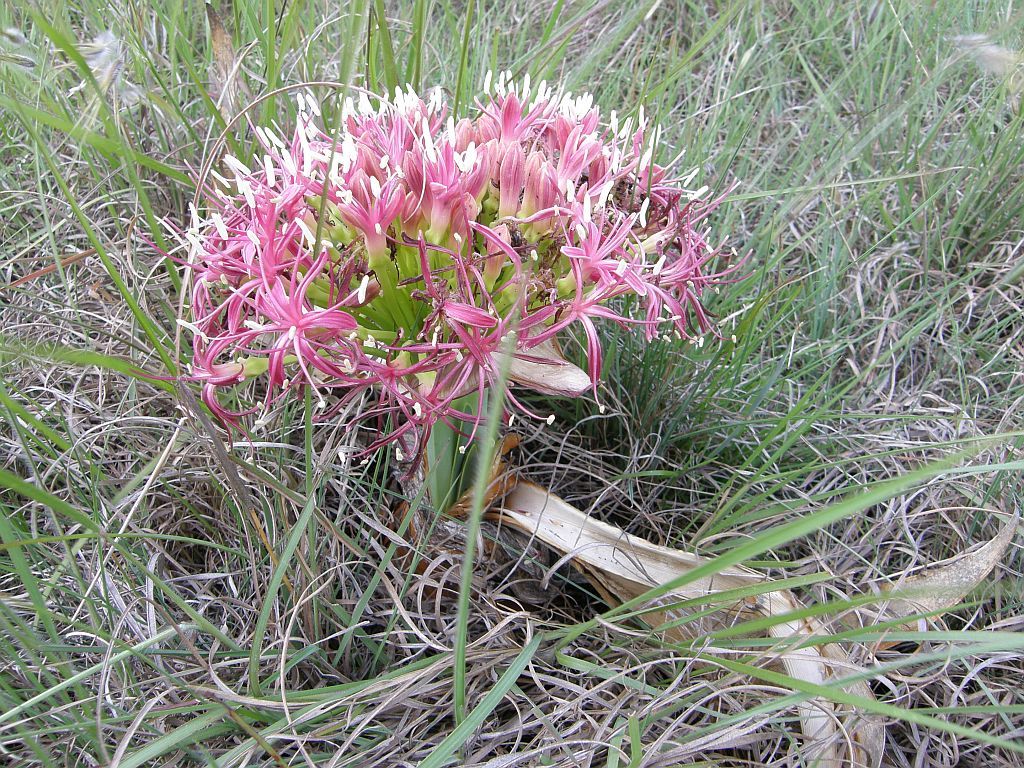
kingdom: Plantae
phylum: Tracheophyta
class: Liliopsida
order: Asparagales
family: Amaryllidaceae
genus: Boophone
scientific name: Boophone disticha
